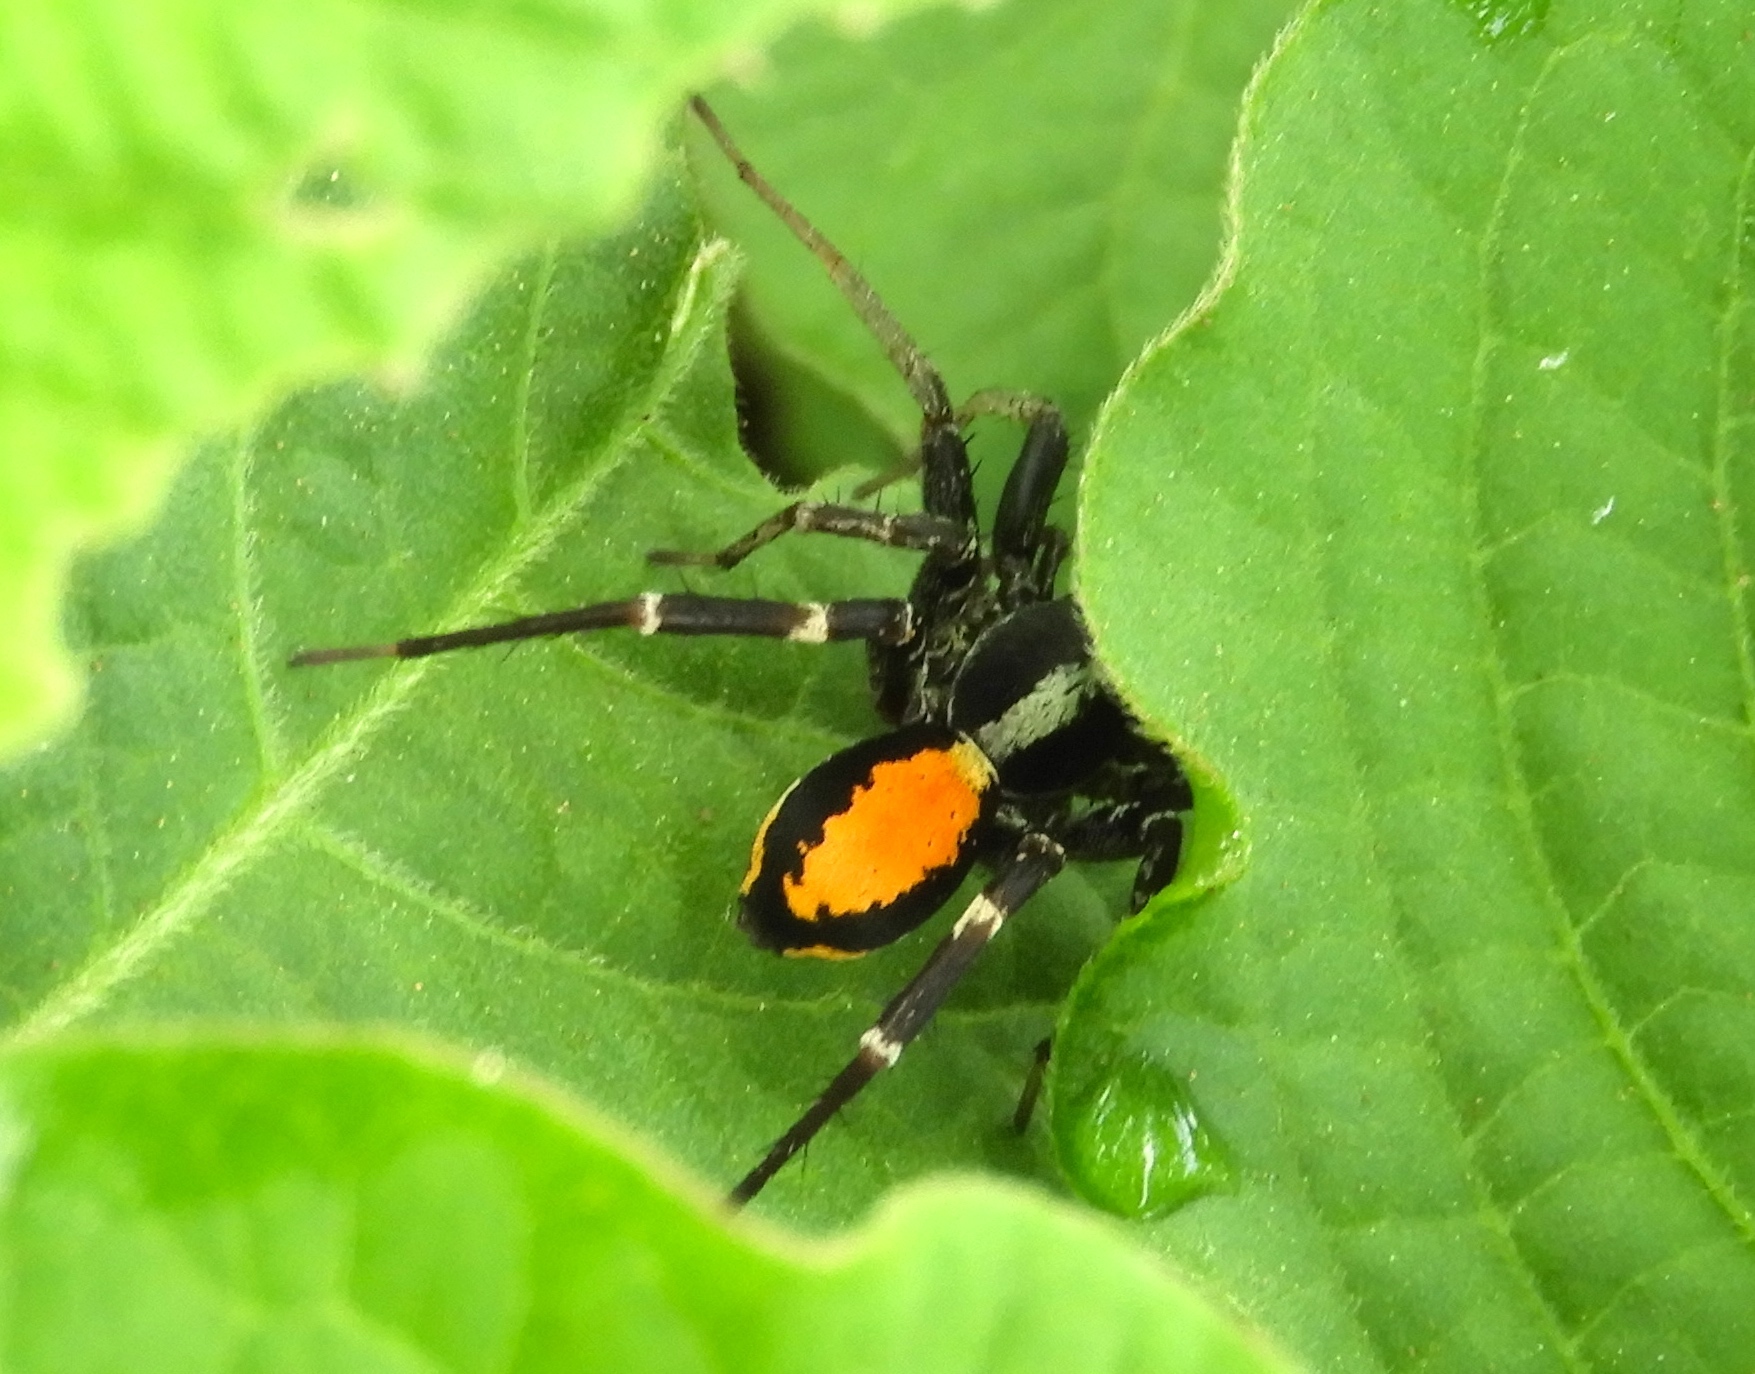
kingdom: Animalia
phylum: Arthropoda
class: Arachnida
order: Araneae
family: Corinnidae
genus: Castianeira
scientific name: Castianeira dorsata
